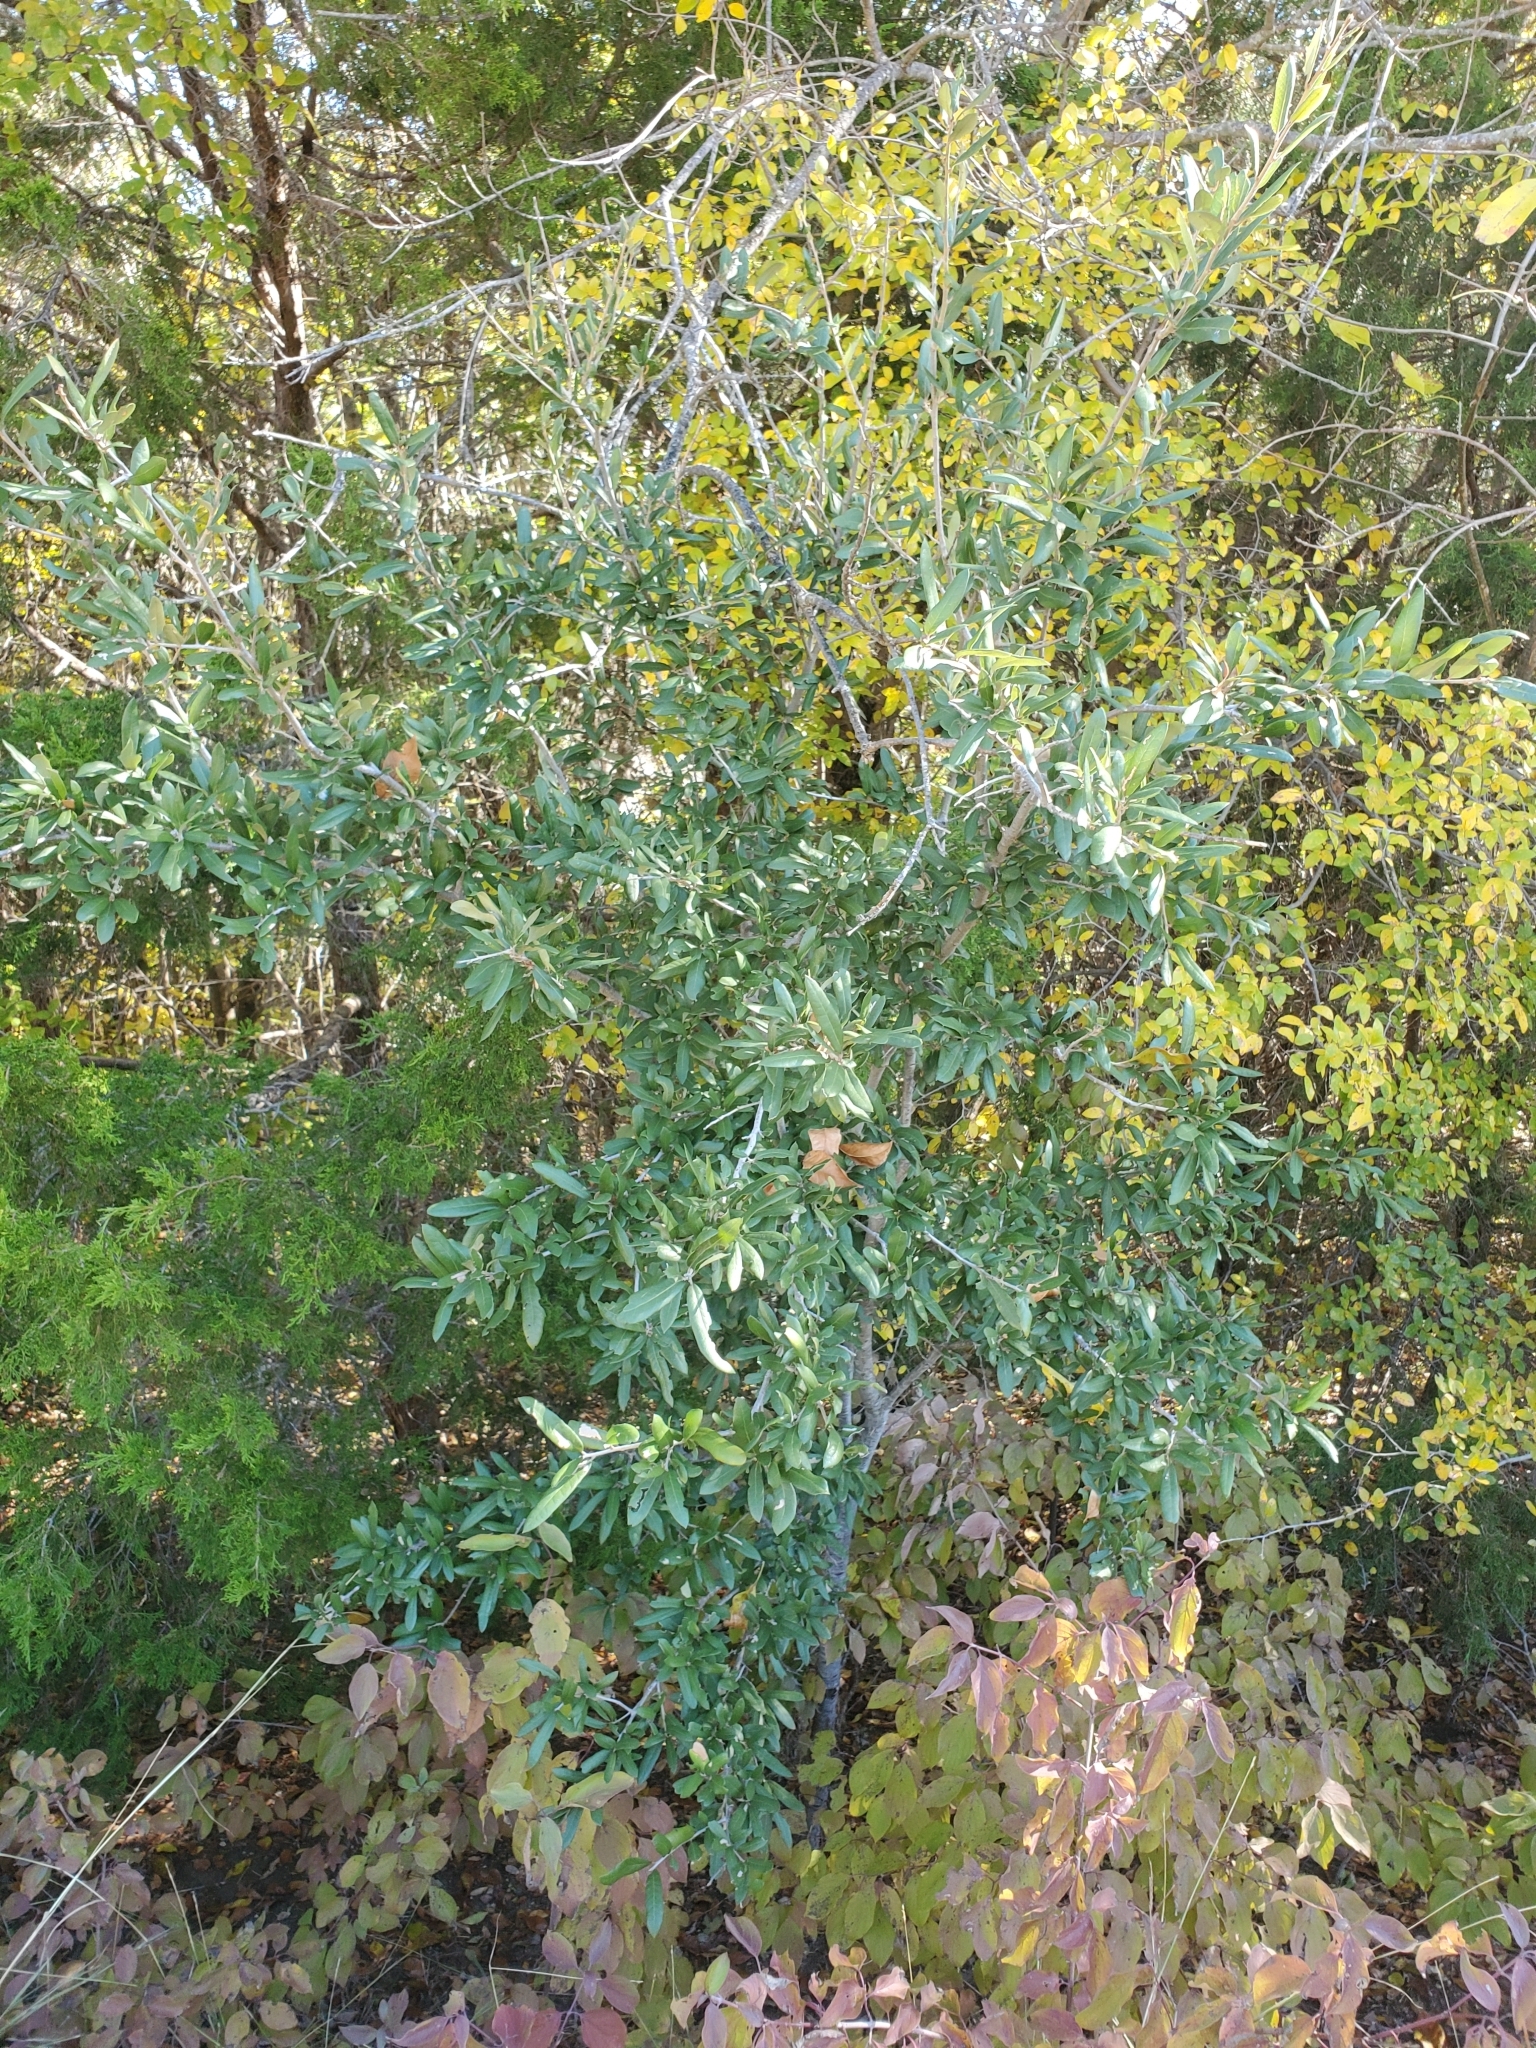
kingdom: Plantae
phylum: Tracheophyta
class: Magnoliopsida
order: Fagales
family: Fagaceae
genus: Quercus
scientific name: Quercus fusiformis
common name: Texas live oak
